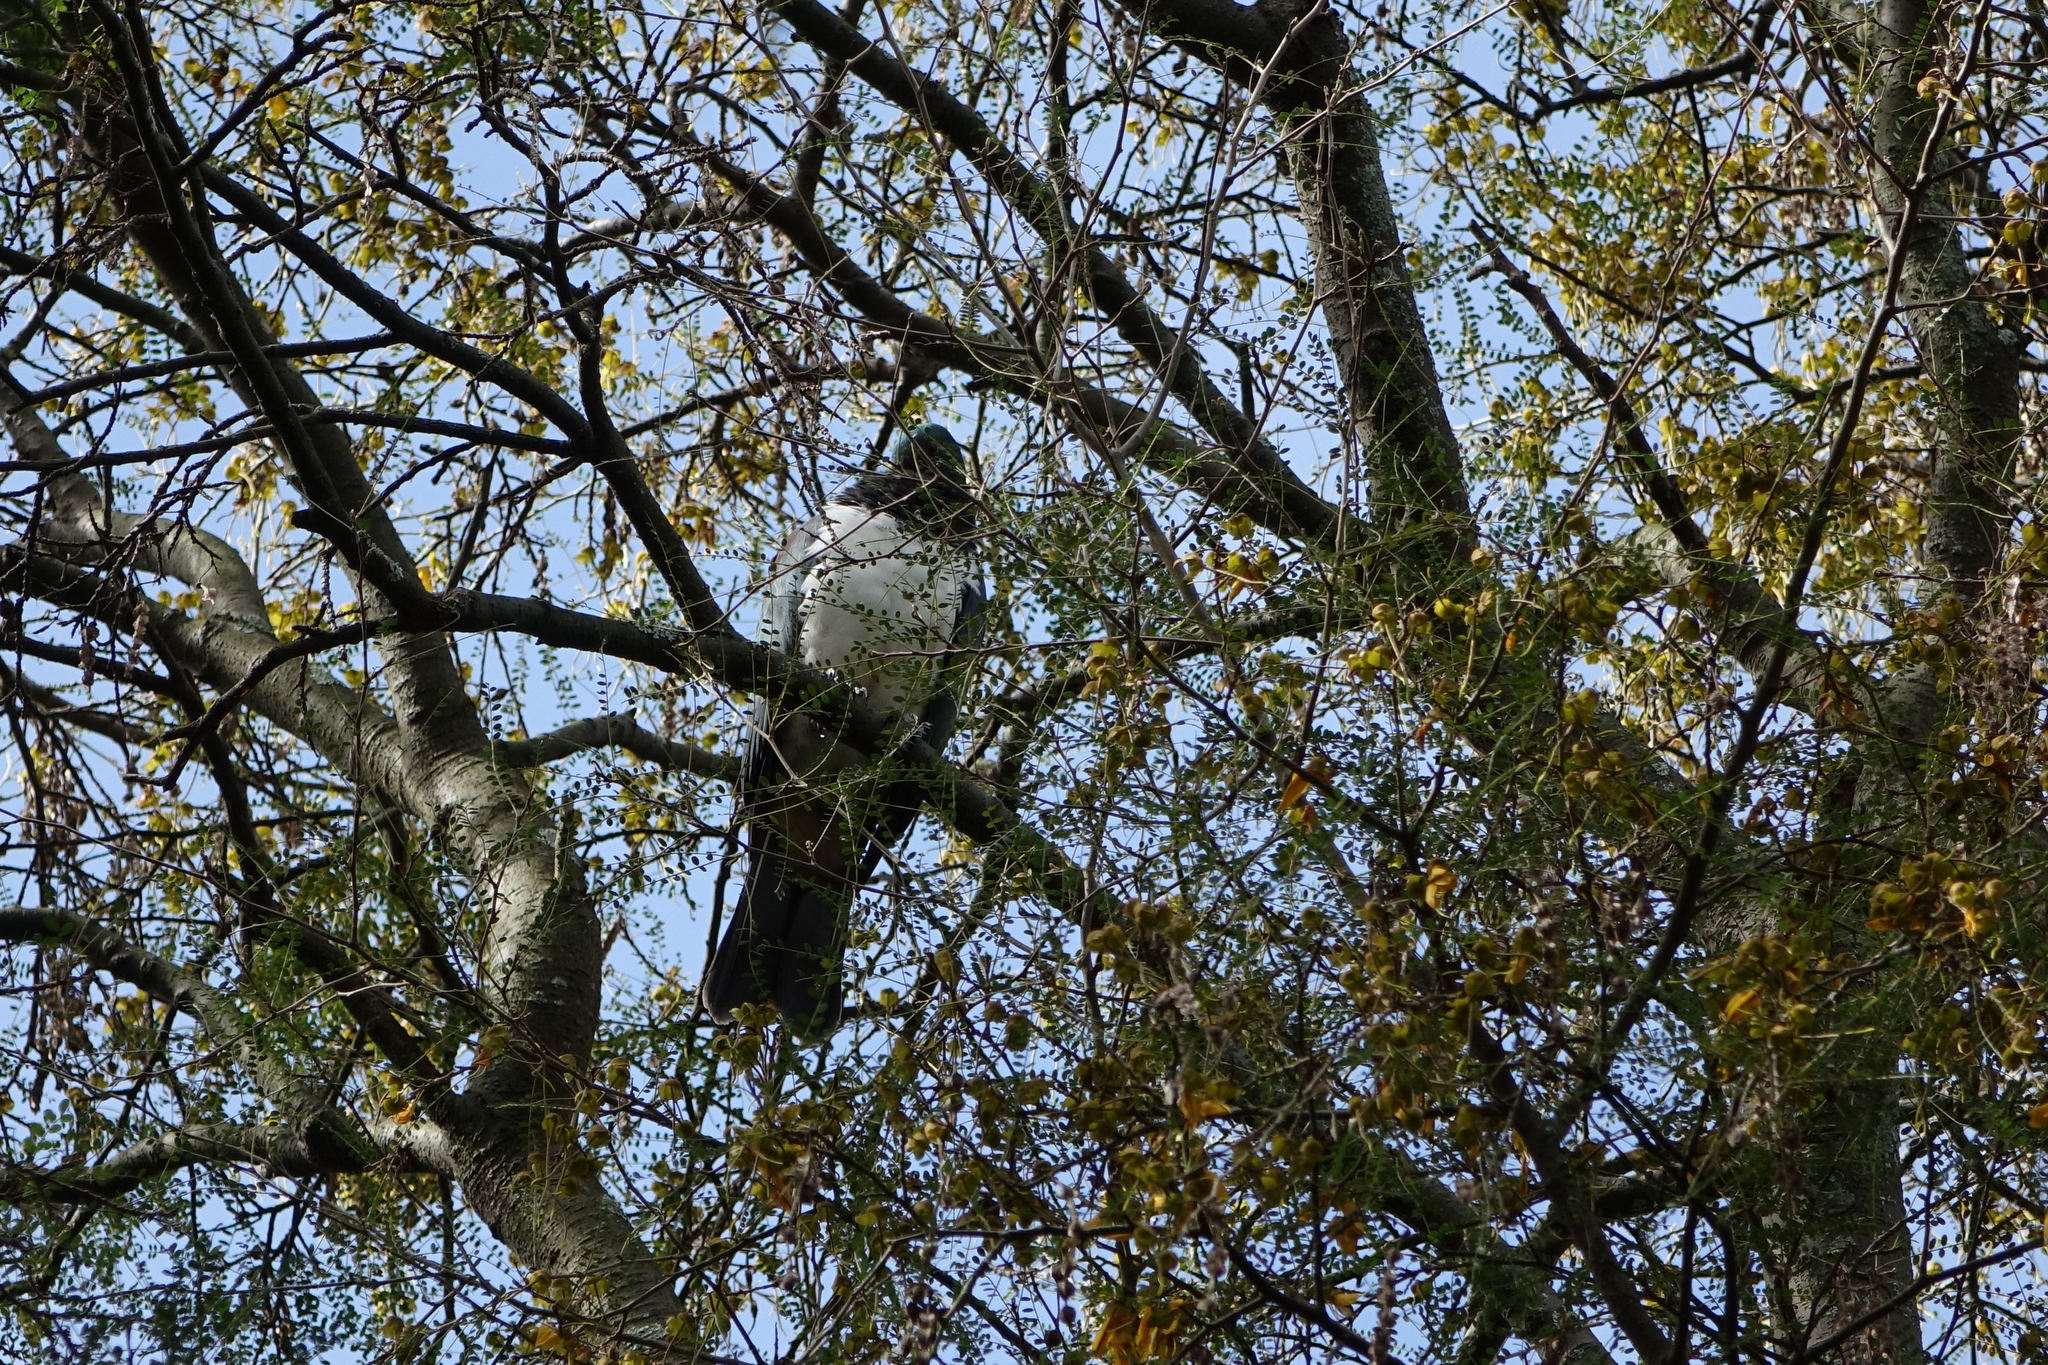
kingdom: Animalia
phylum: Chordata
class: Aves
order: Columbiformes
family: Columbidae
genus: Hemiphaga
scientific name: Hemiphaga novaeseelandiae
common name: New zealand pigeon
